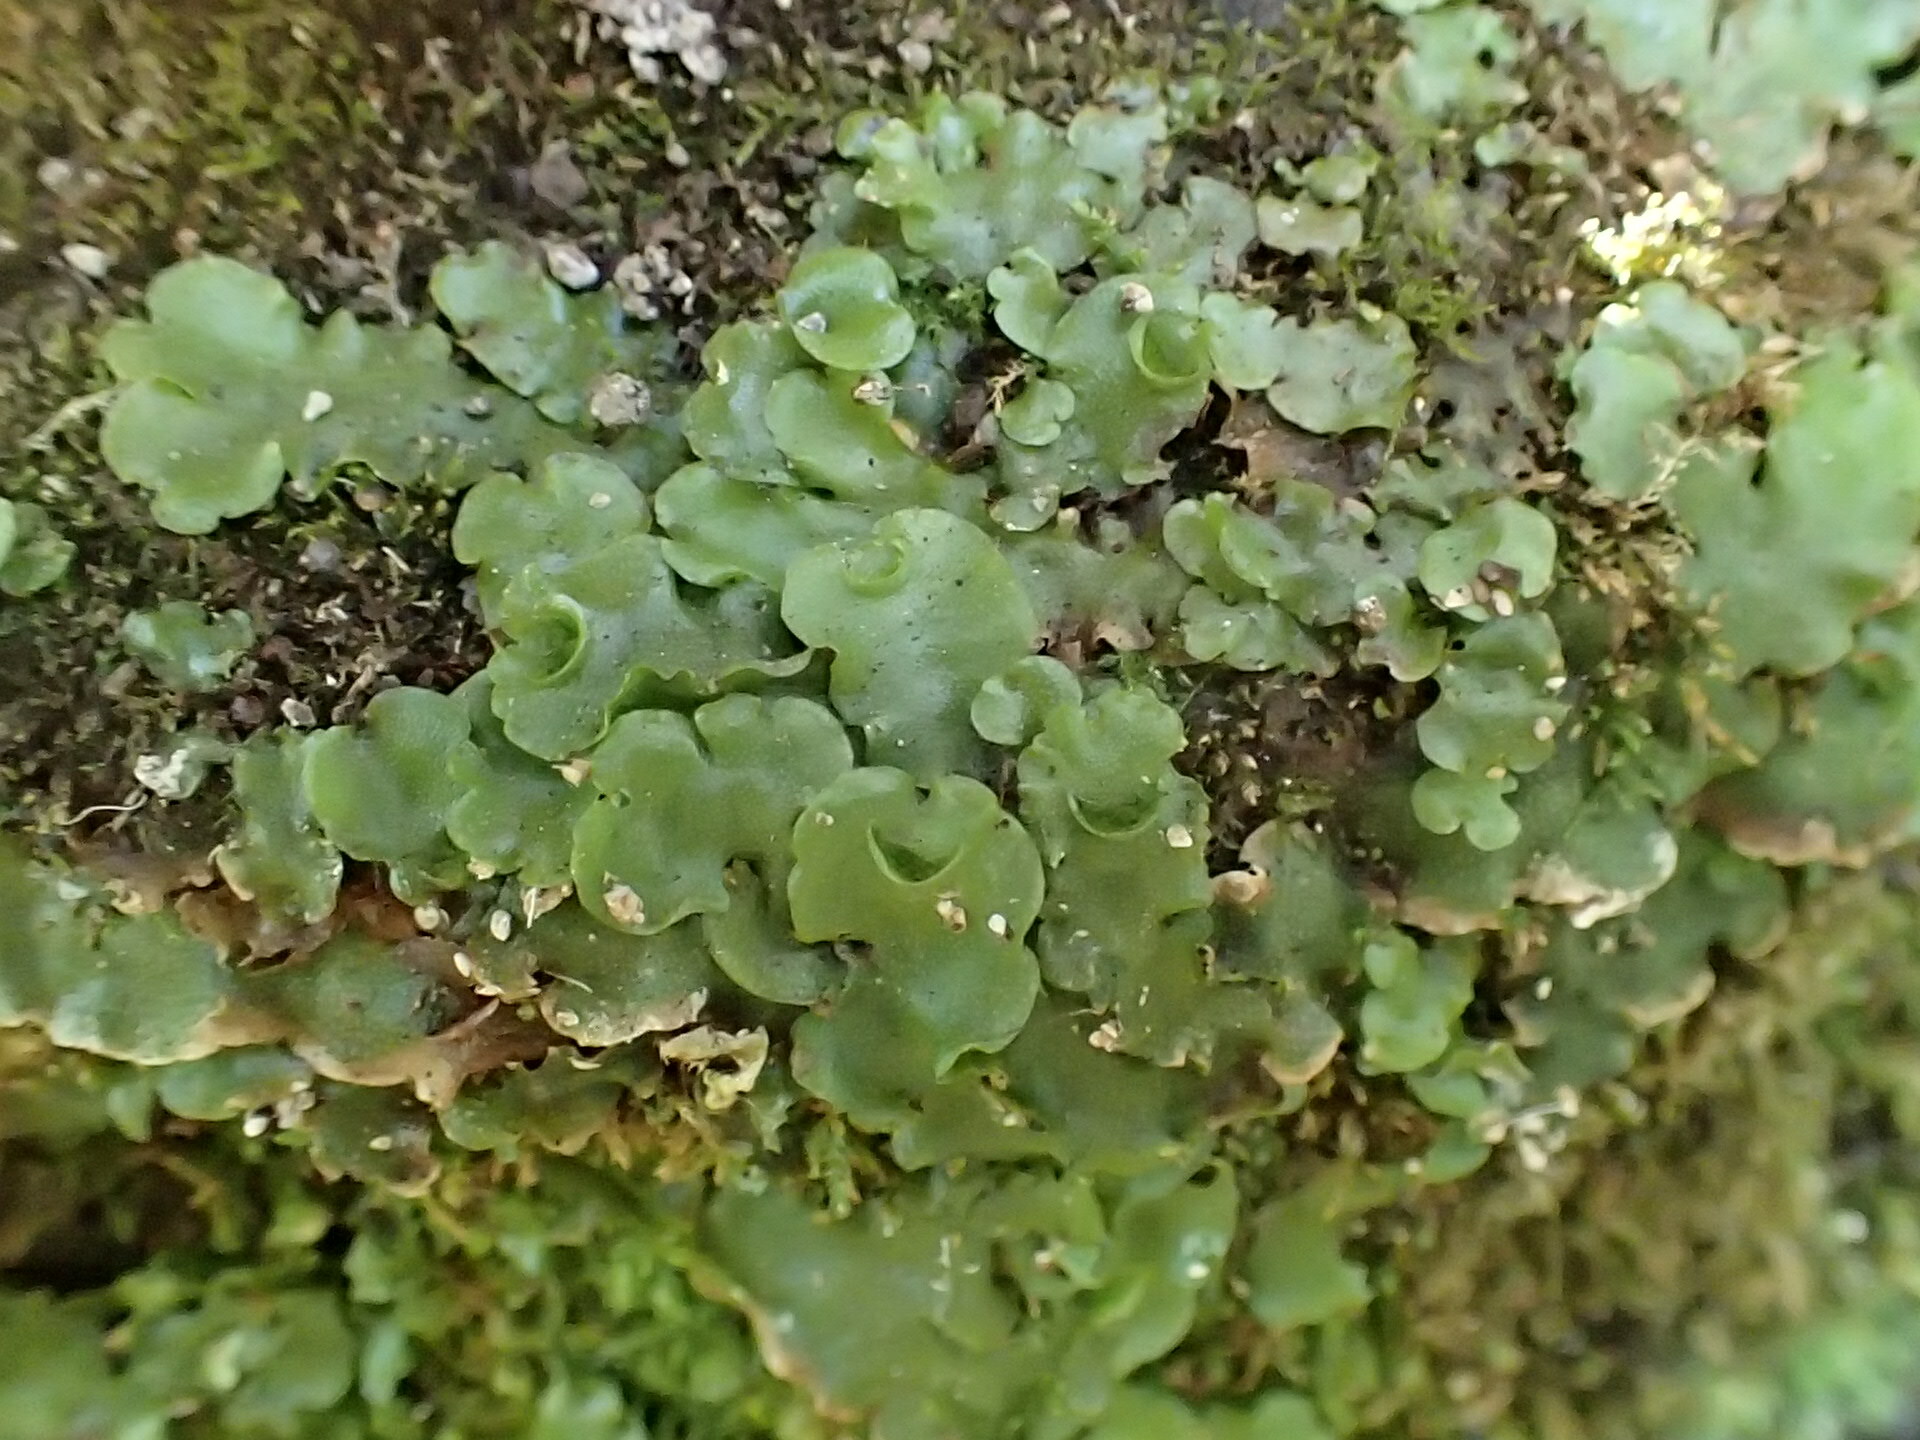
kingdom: Plantae
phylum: Marchantiophyta
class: Marchantiopsida
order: Lunulariales
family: Lunulariaceae
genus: Lunularia
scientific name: Lunularia cruciata
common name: Crescent-cup liverwort
